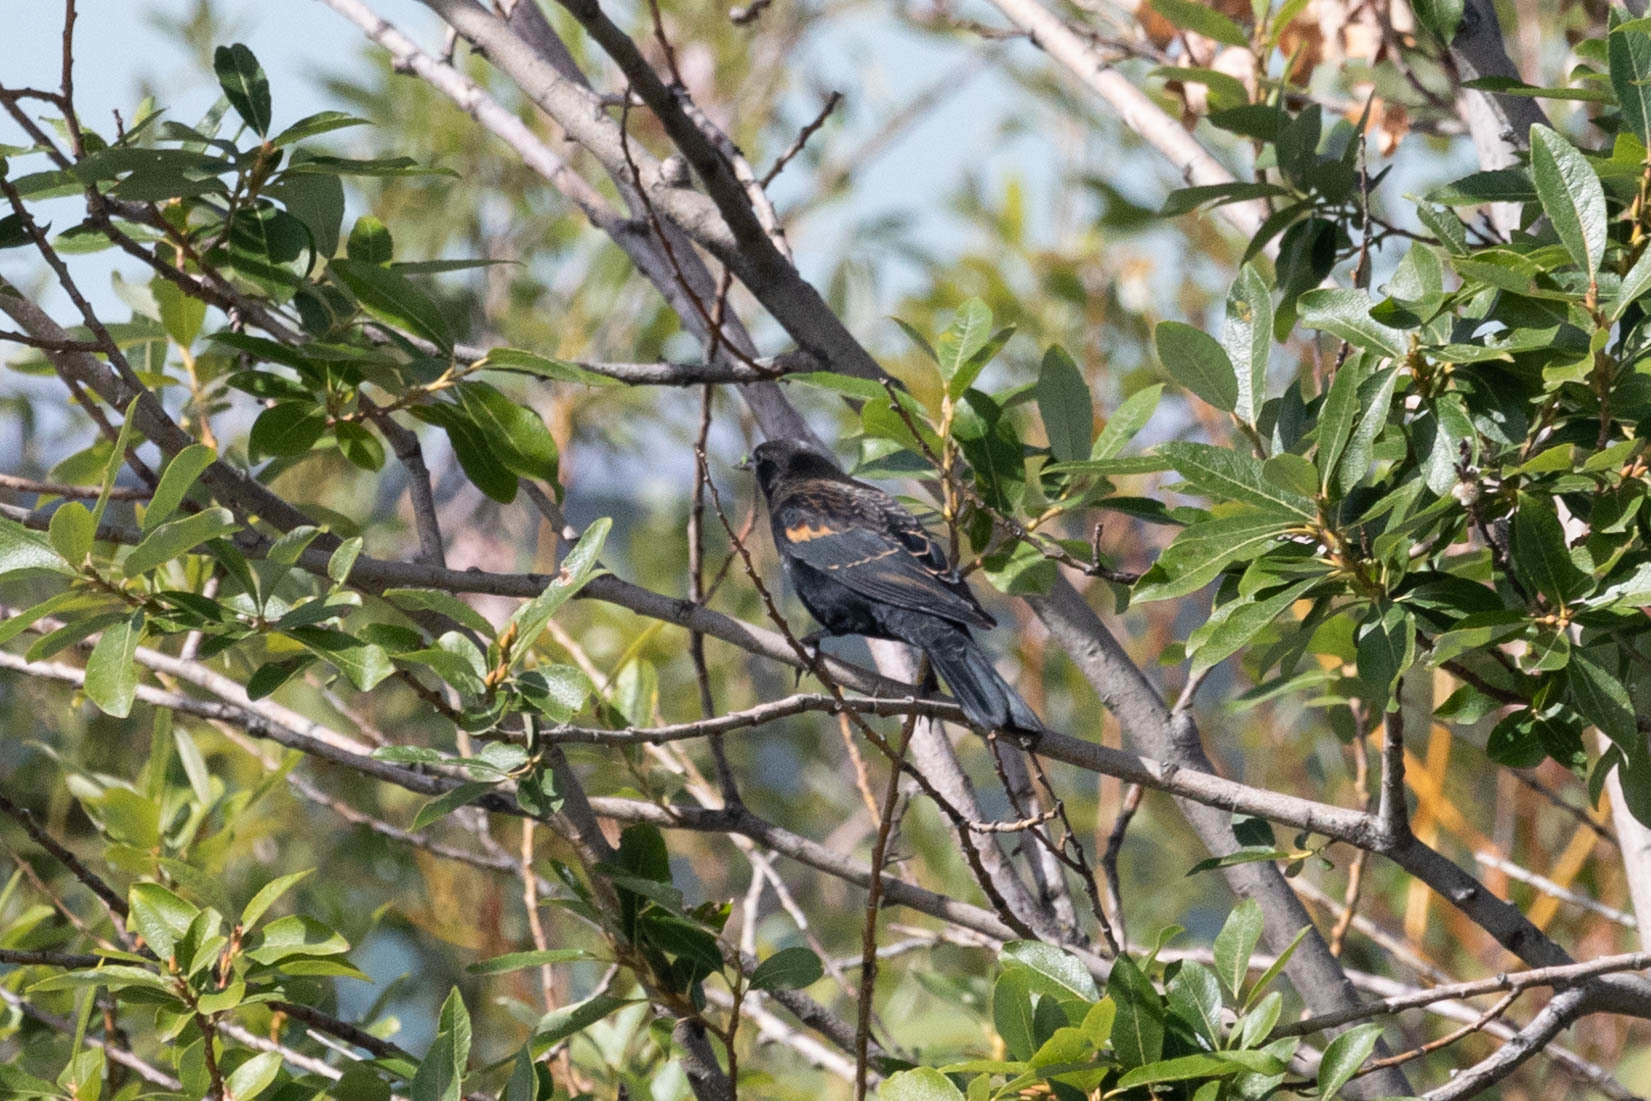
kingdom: Animalia
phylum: Chordata
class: Aves
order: Passeriformes
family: Icteridae
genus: Agelaius
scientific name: Agelaius phoeniceus
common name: Red-winged blackbird
